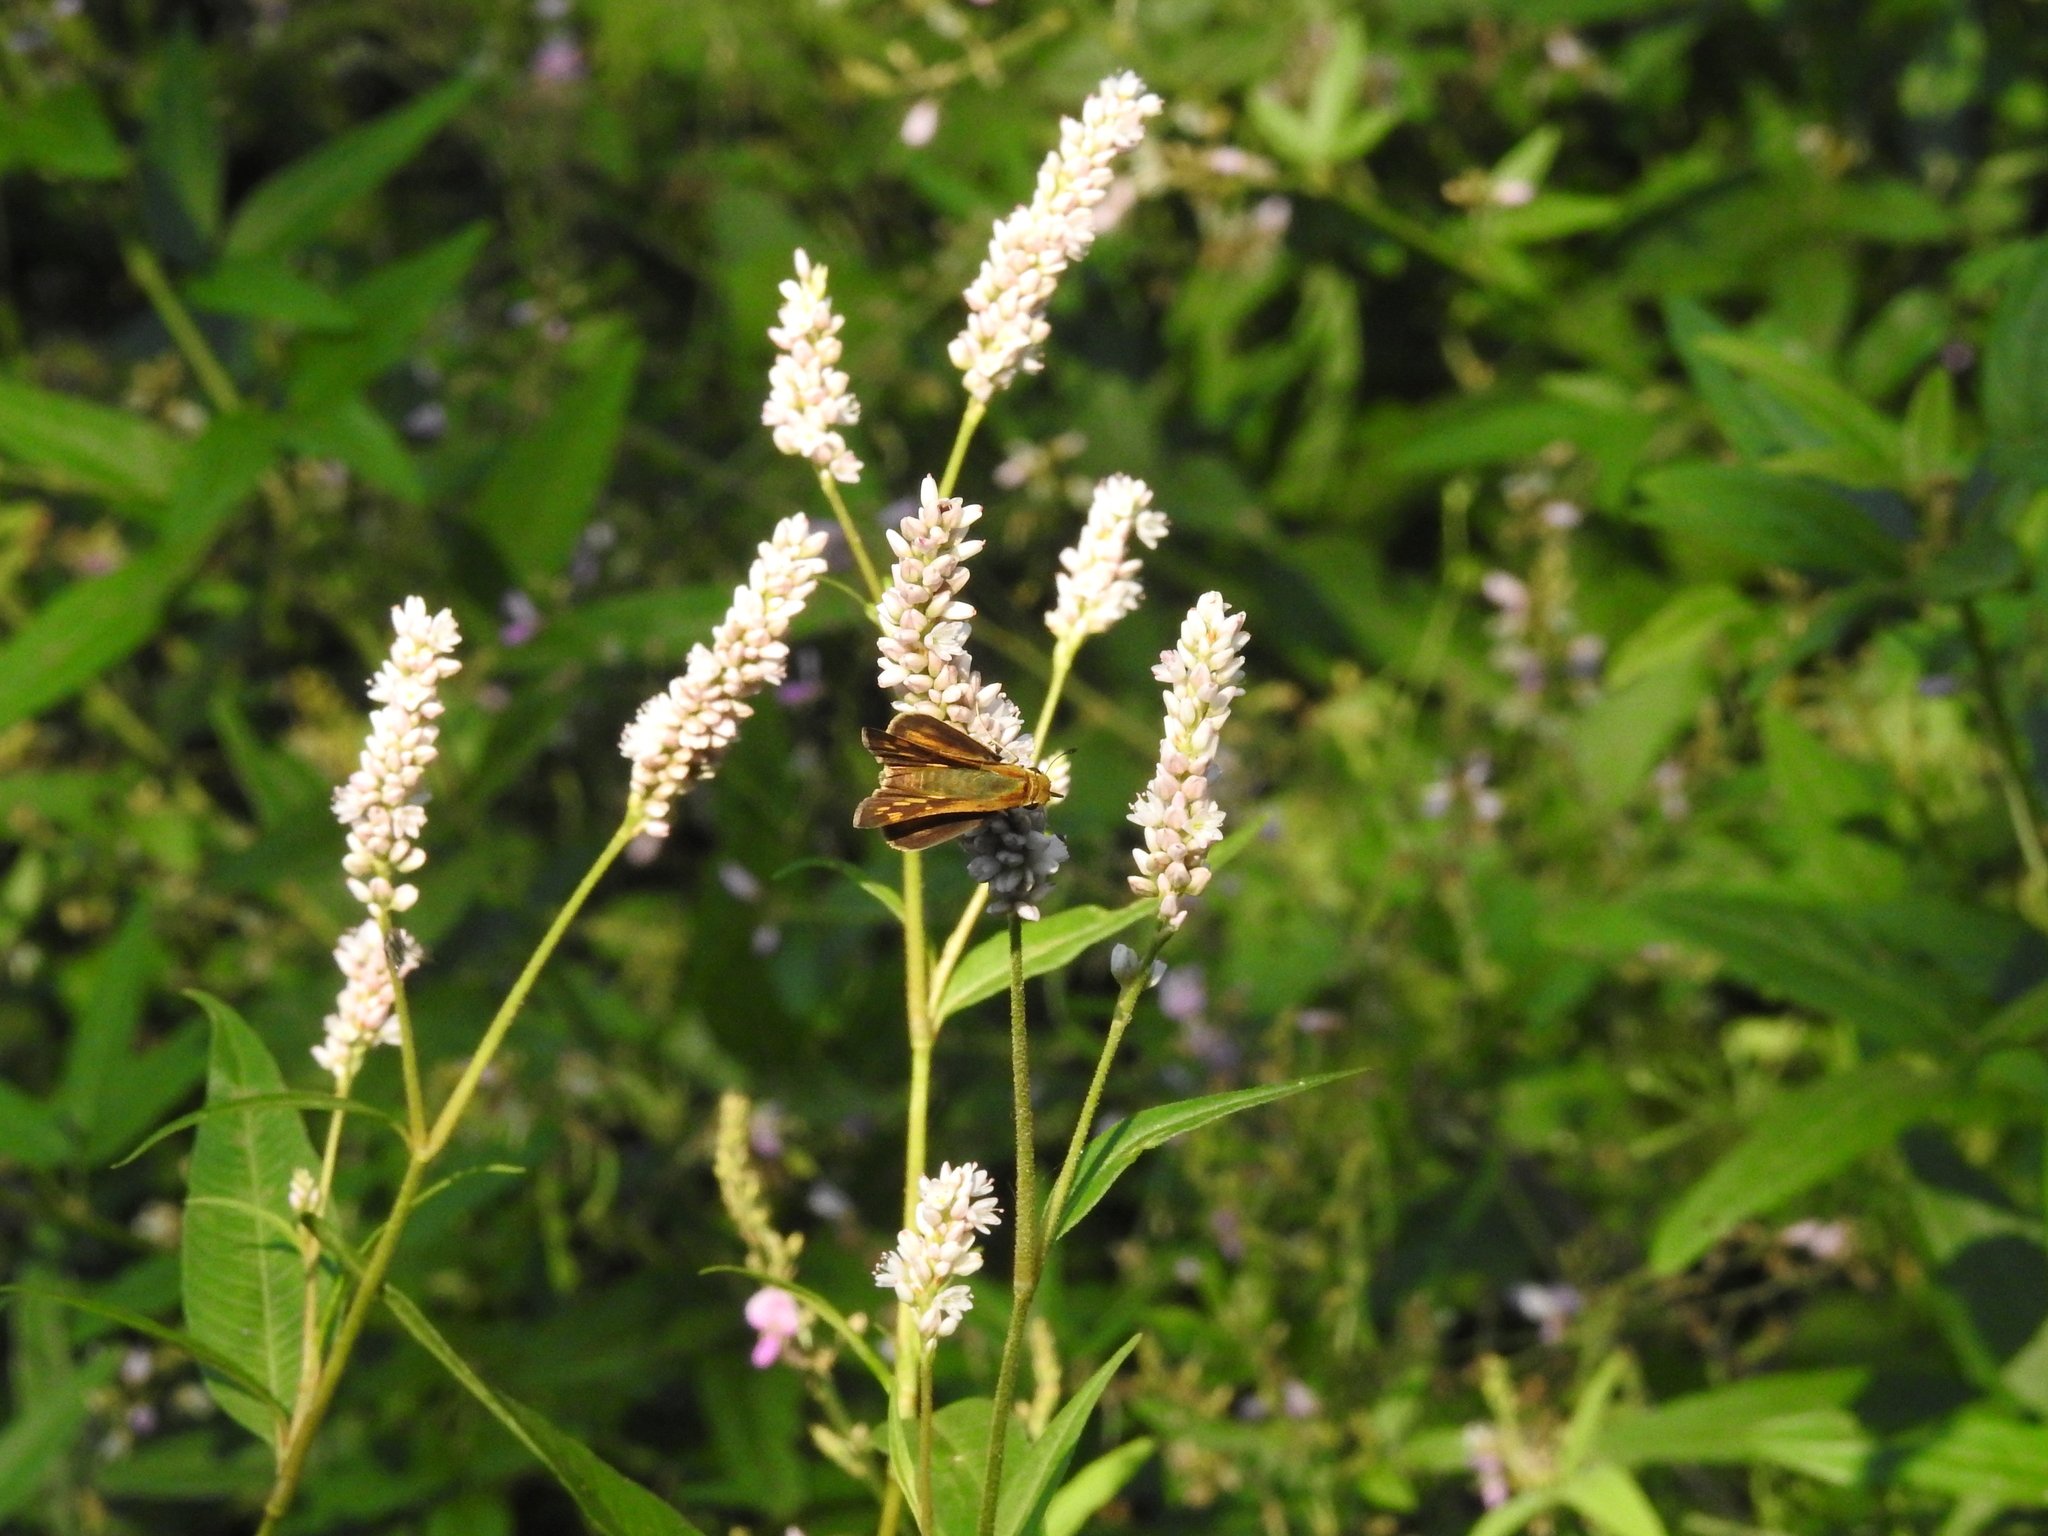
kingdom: Animalia
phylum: Arthropoda
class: Insecta
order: Lepidoptera
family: Hesperiidae
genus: Hylephila
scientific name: Hylephila phyleus
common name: Fiery skipper
